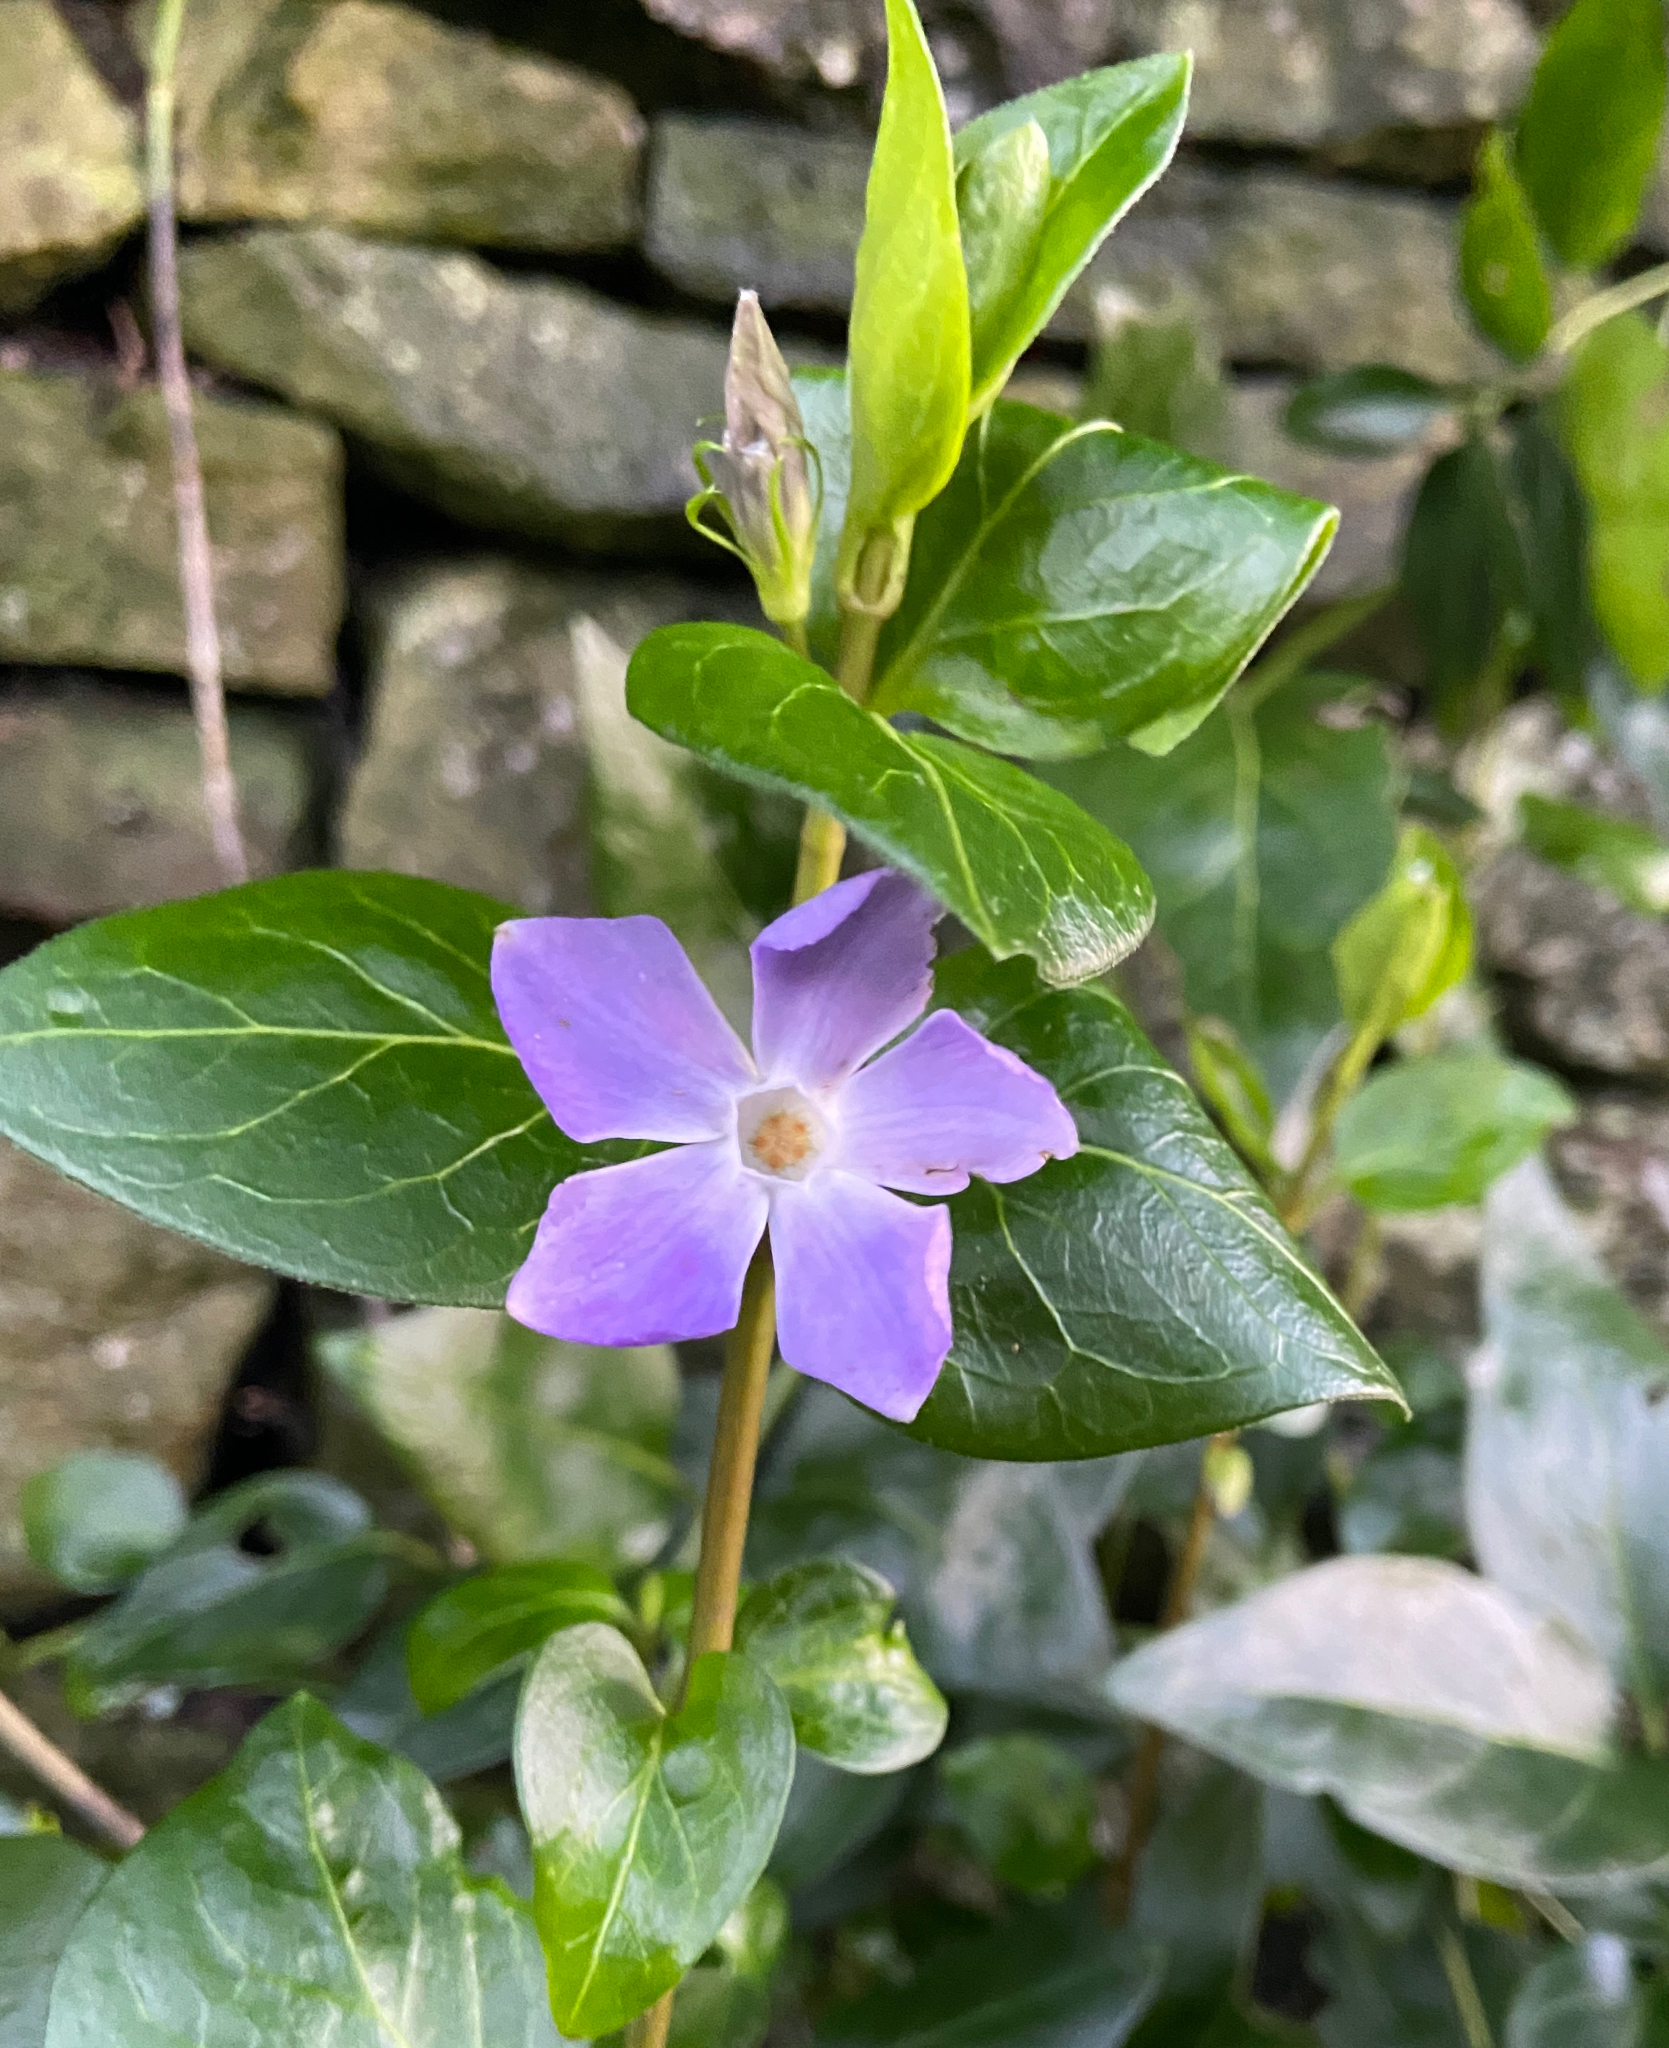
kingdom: Plantae
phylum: Tracheophyta
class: Magnoliopsida
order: Gentianales
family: Apocynaceae
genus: Vinca
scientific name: Vinca major
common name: Greater periwinkle
